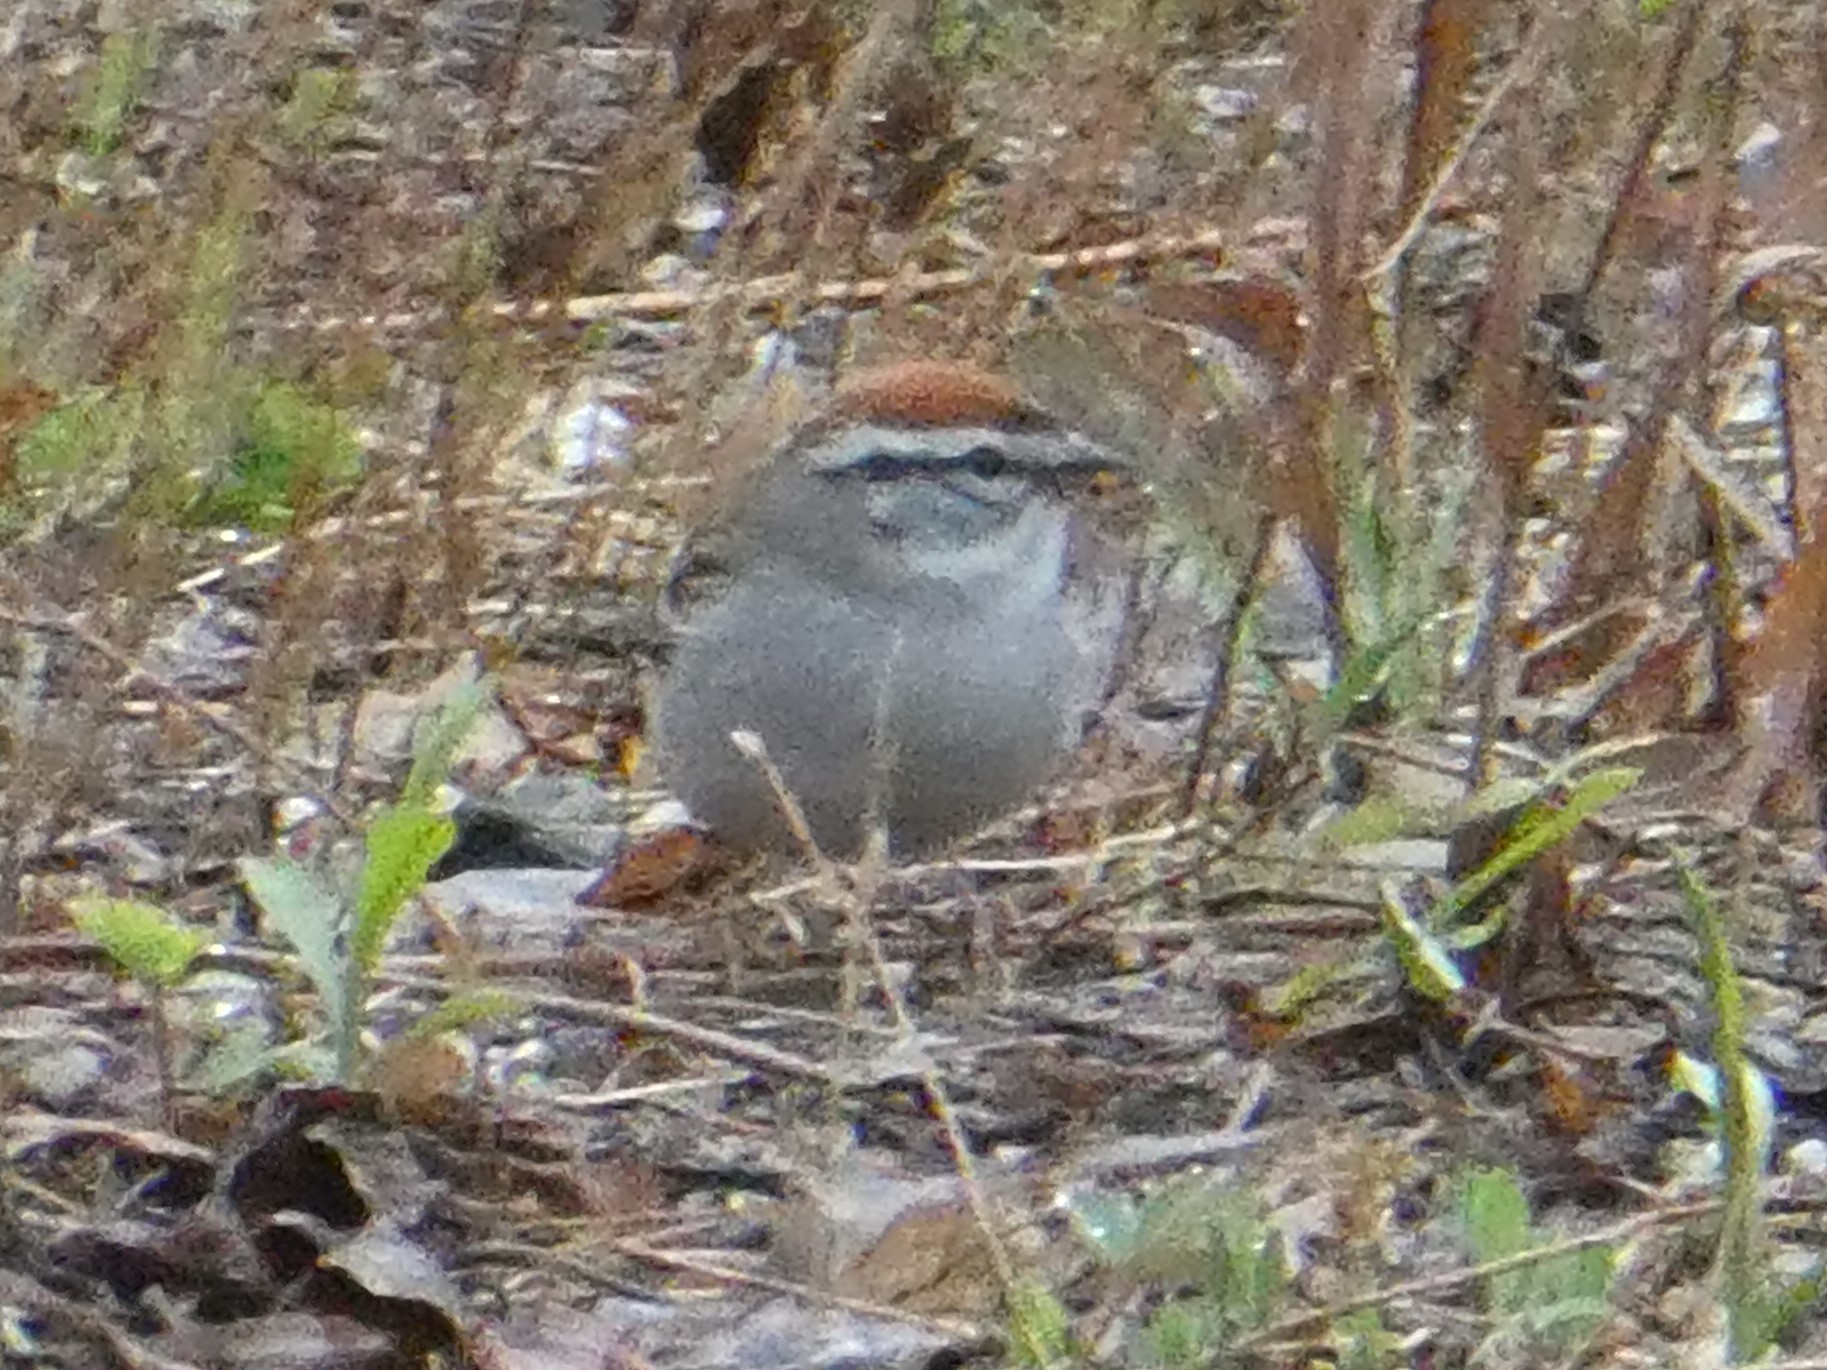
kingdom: Animalia
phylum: Chordata
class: Aves
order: Passeriformes
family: Passerellidae
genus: Spizella
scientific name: Spizella passerina
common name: Chipping sparrow
